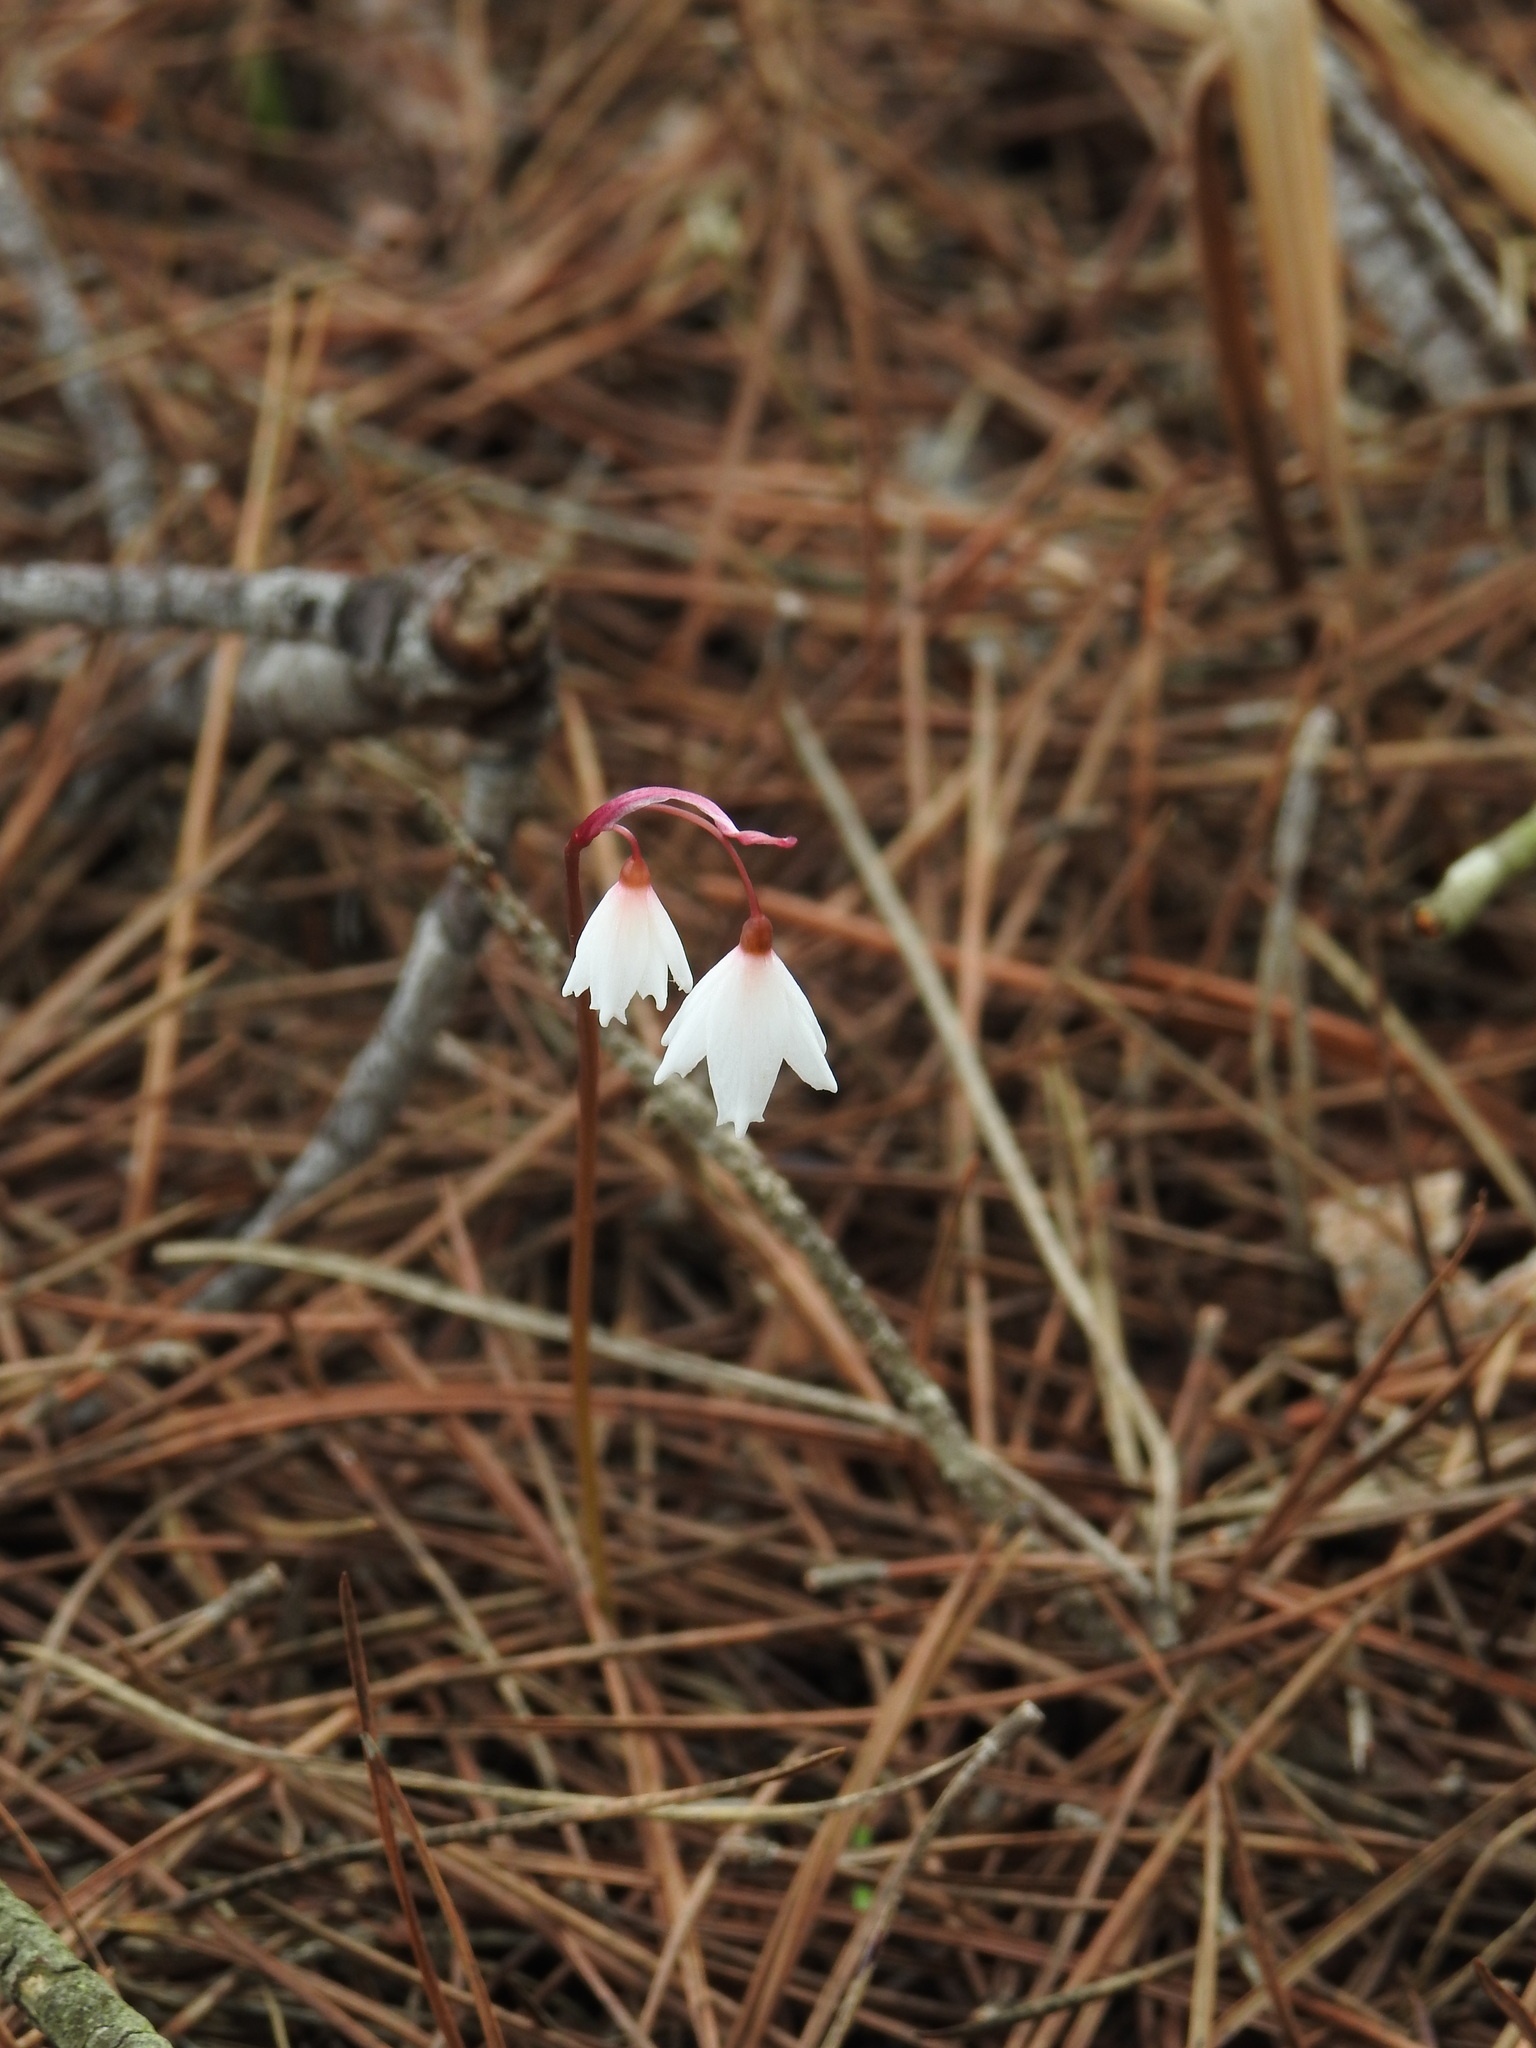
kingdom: Plantae
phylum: Tracheophyta
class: Liliopsida
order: Asparagales
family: Amaryllidaceae
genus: Acis
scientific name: Acis autumnalis
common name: Autumn snowflake
